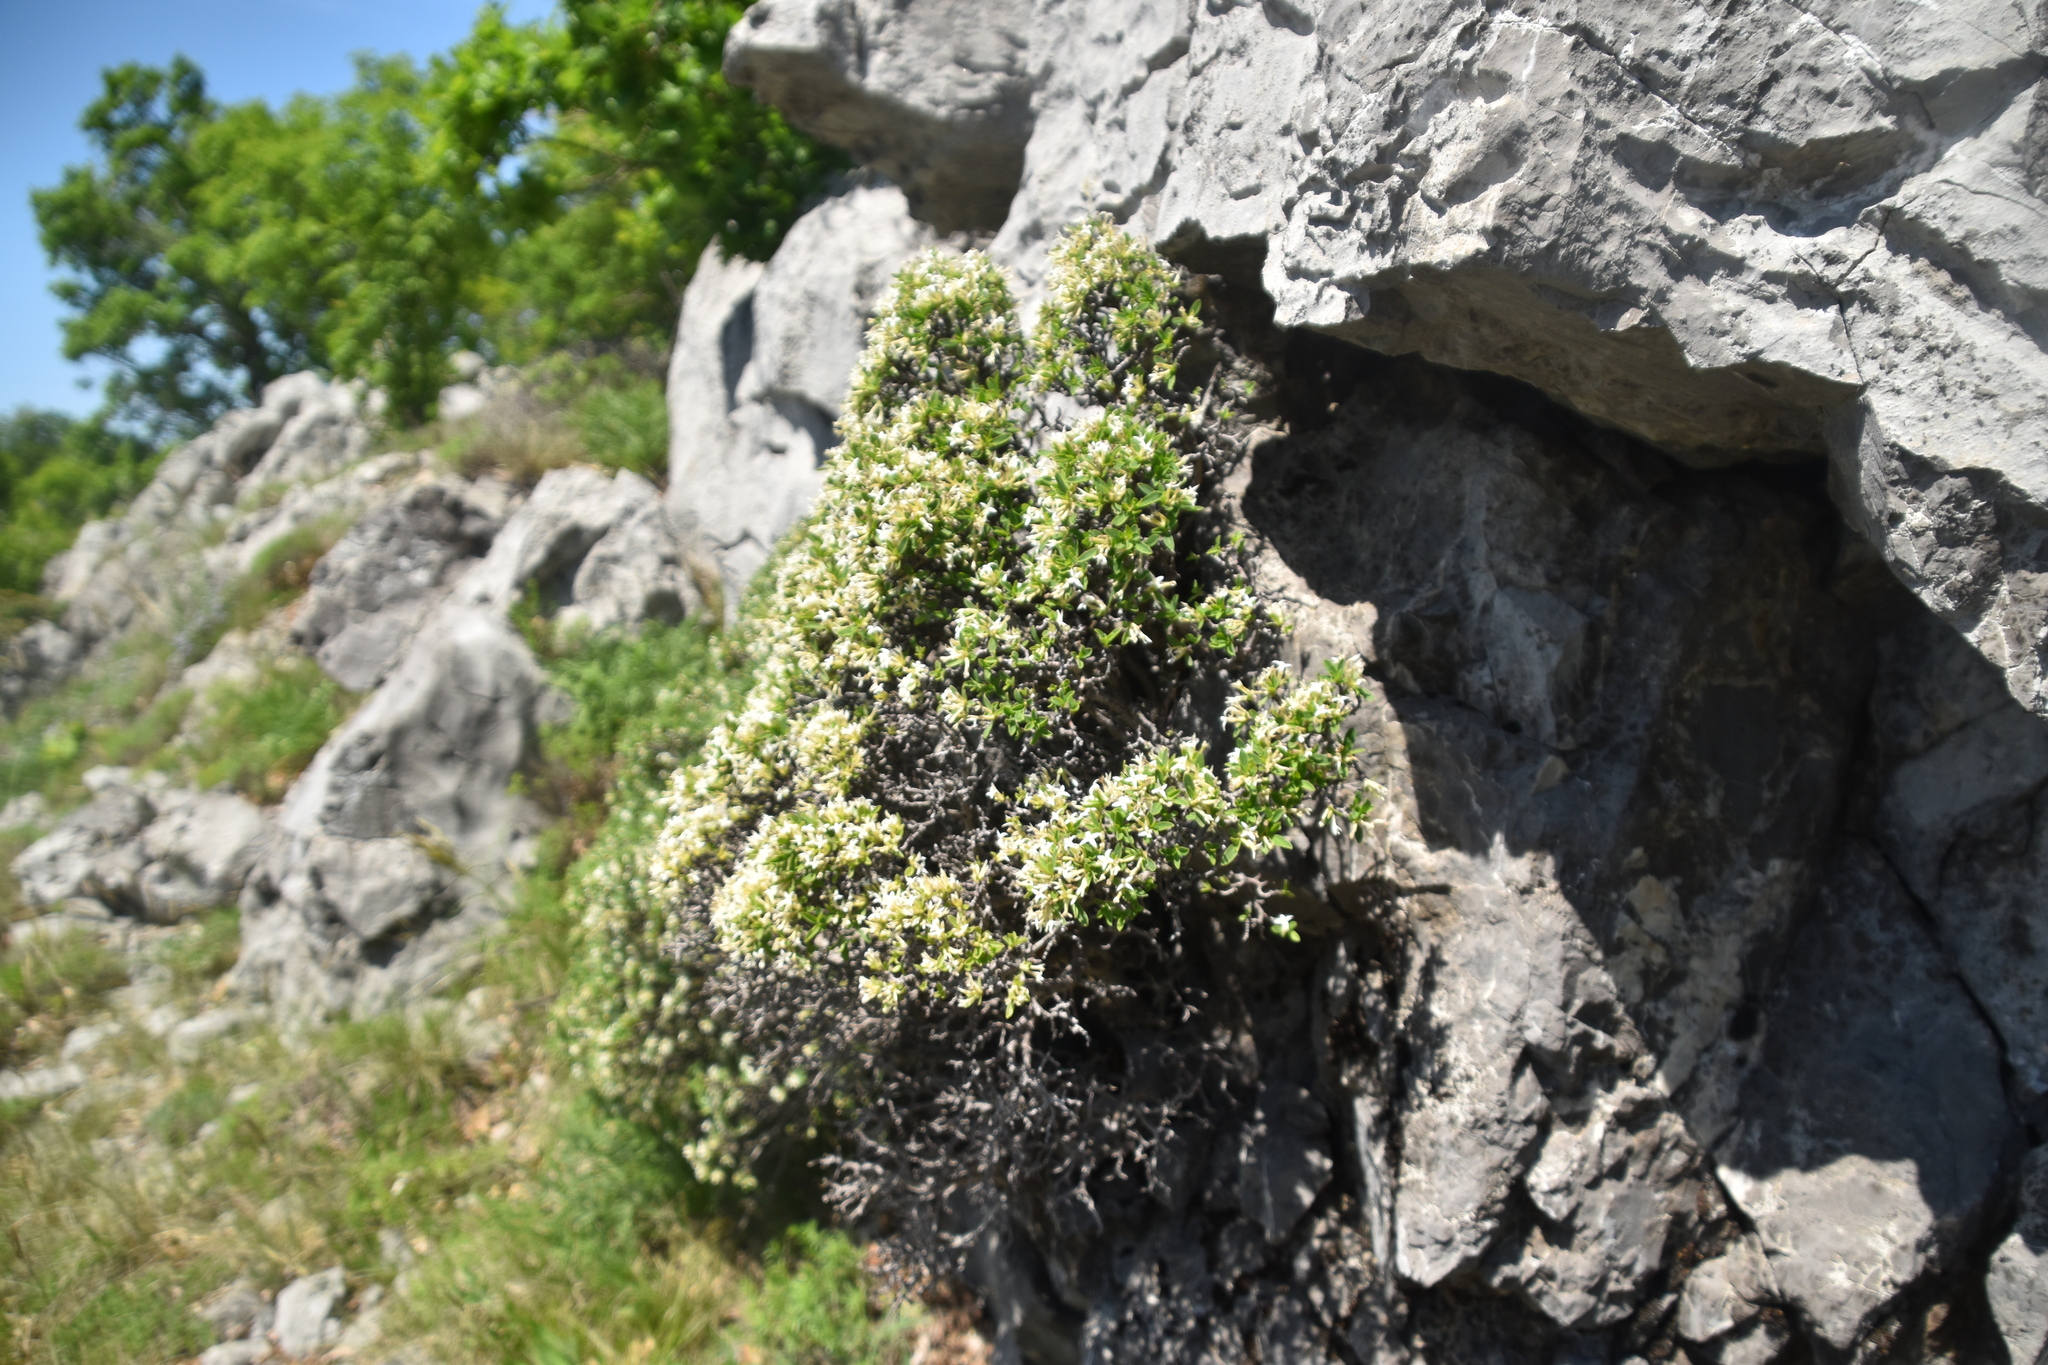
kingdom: Plantae
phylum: Tracheophyta
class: Magnoliopsida
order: Malvales
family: Thymelaeaceae
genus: Daphne
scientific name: Daphne alpina
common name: Alpine daphne
